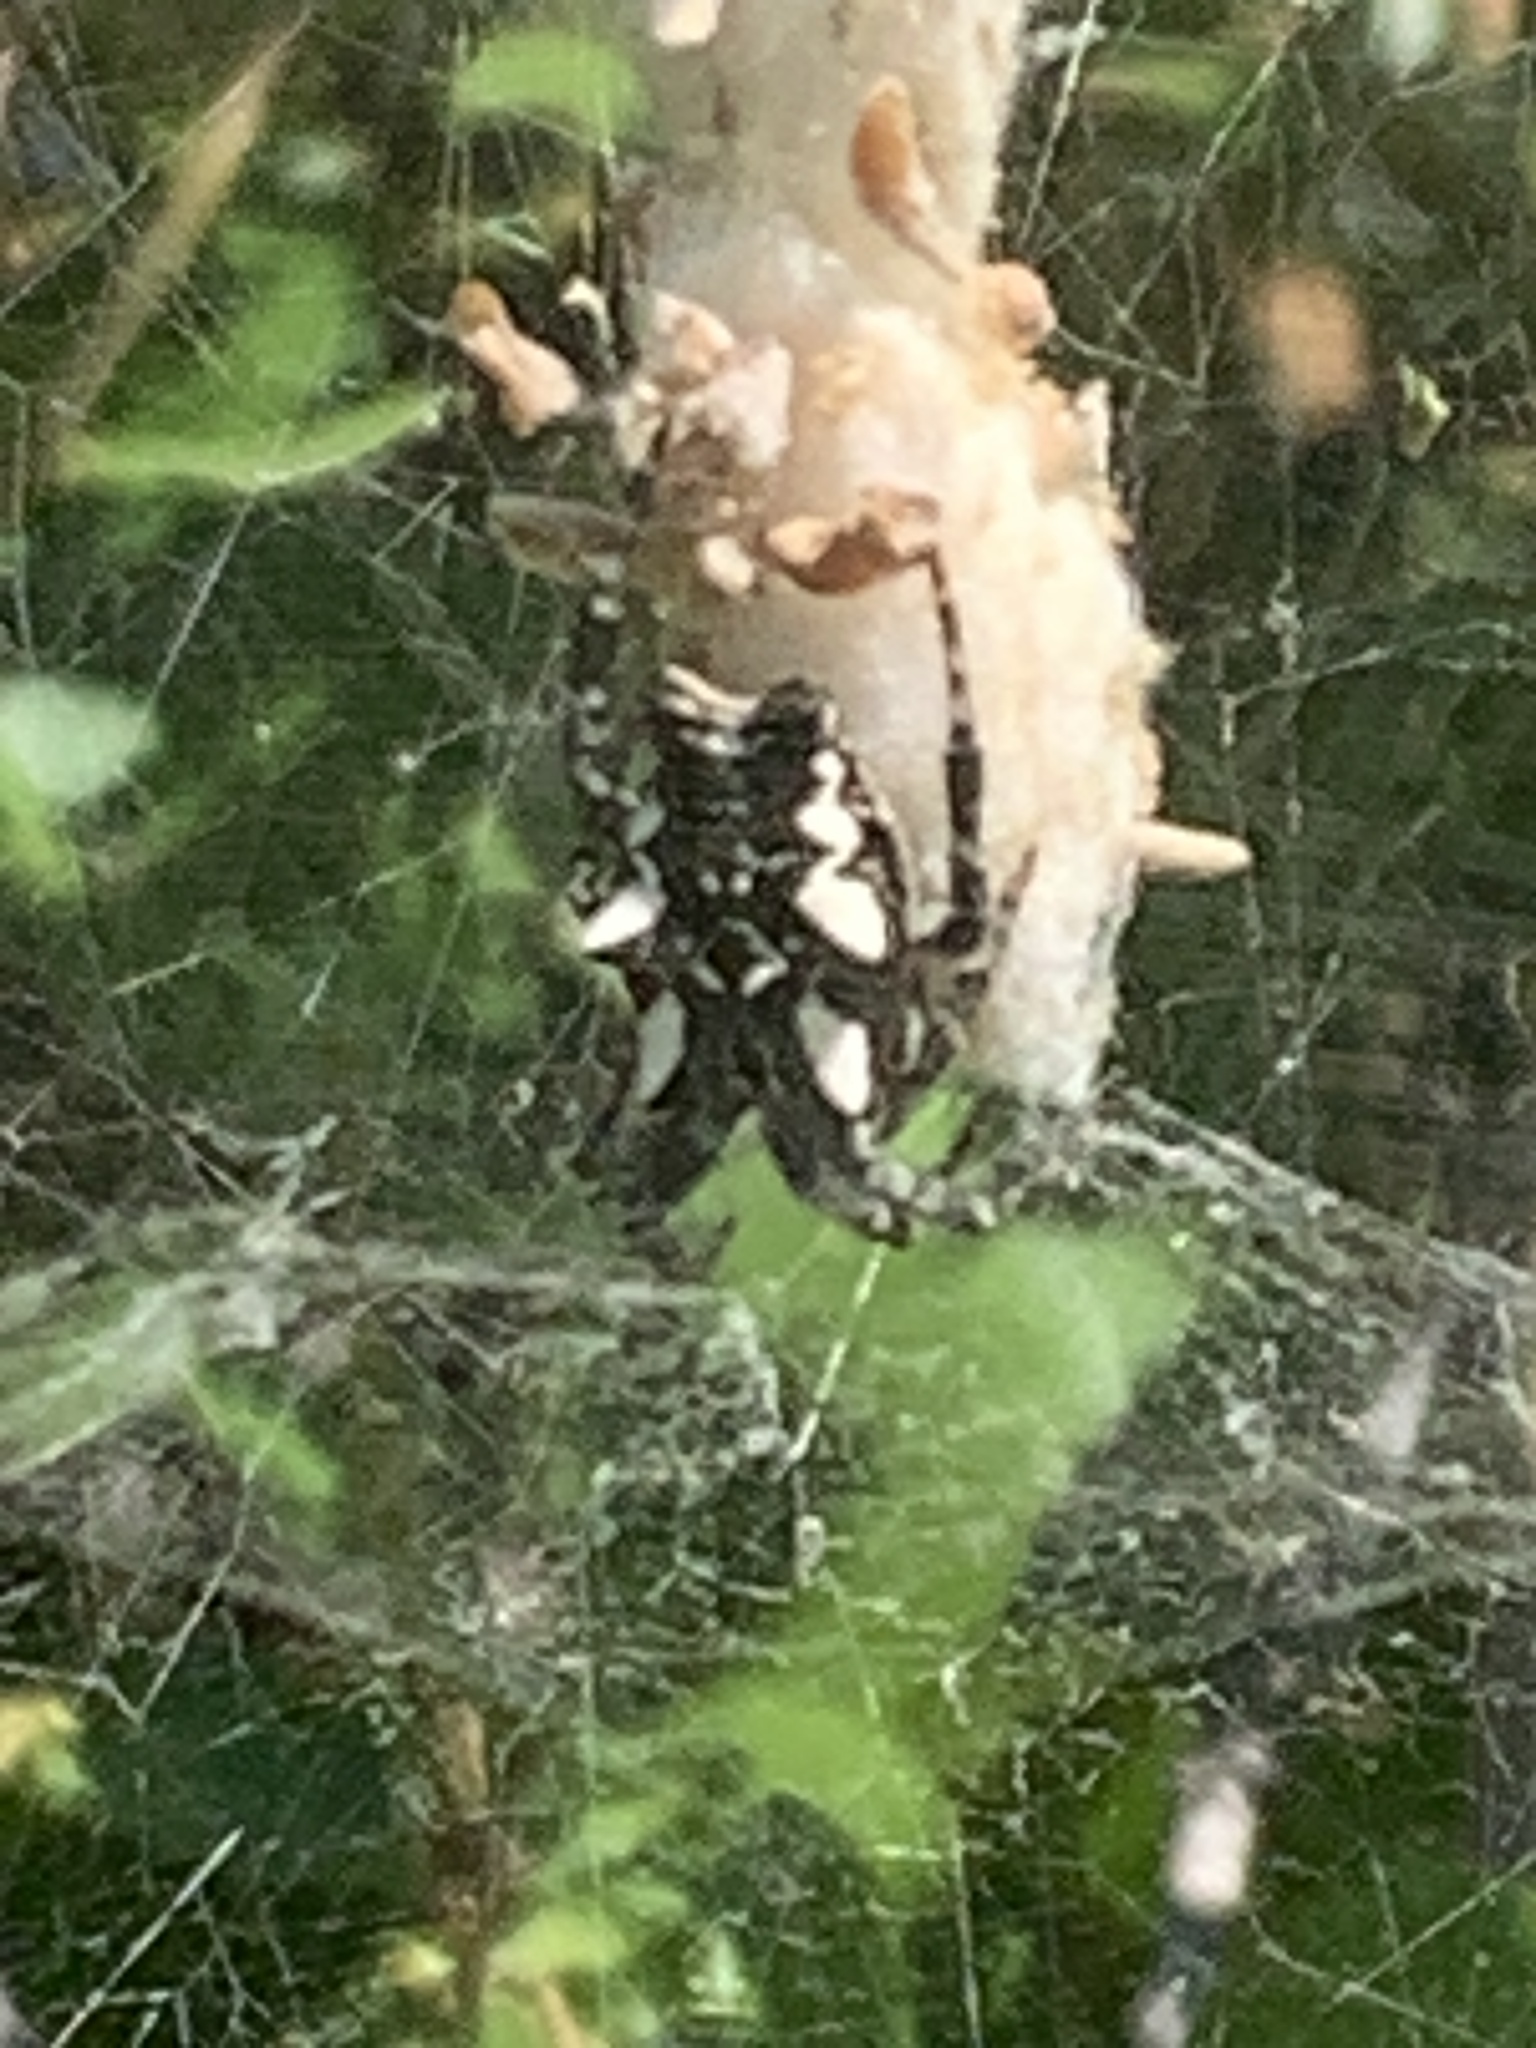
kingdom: Animalia
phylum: Arthropoda
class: Arachnida
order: Araneae
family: Araneidae
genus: Cyrtophora
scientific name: Cyrtophora citricola
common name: Orb weavers
